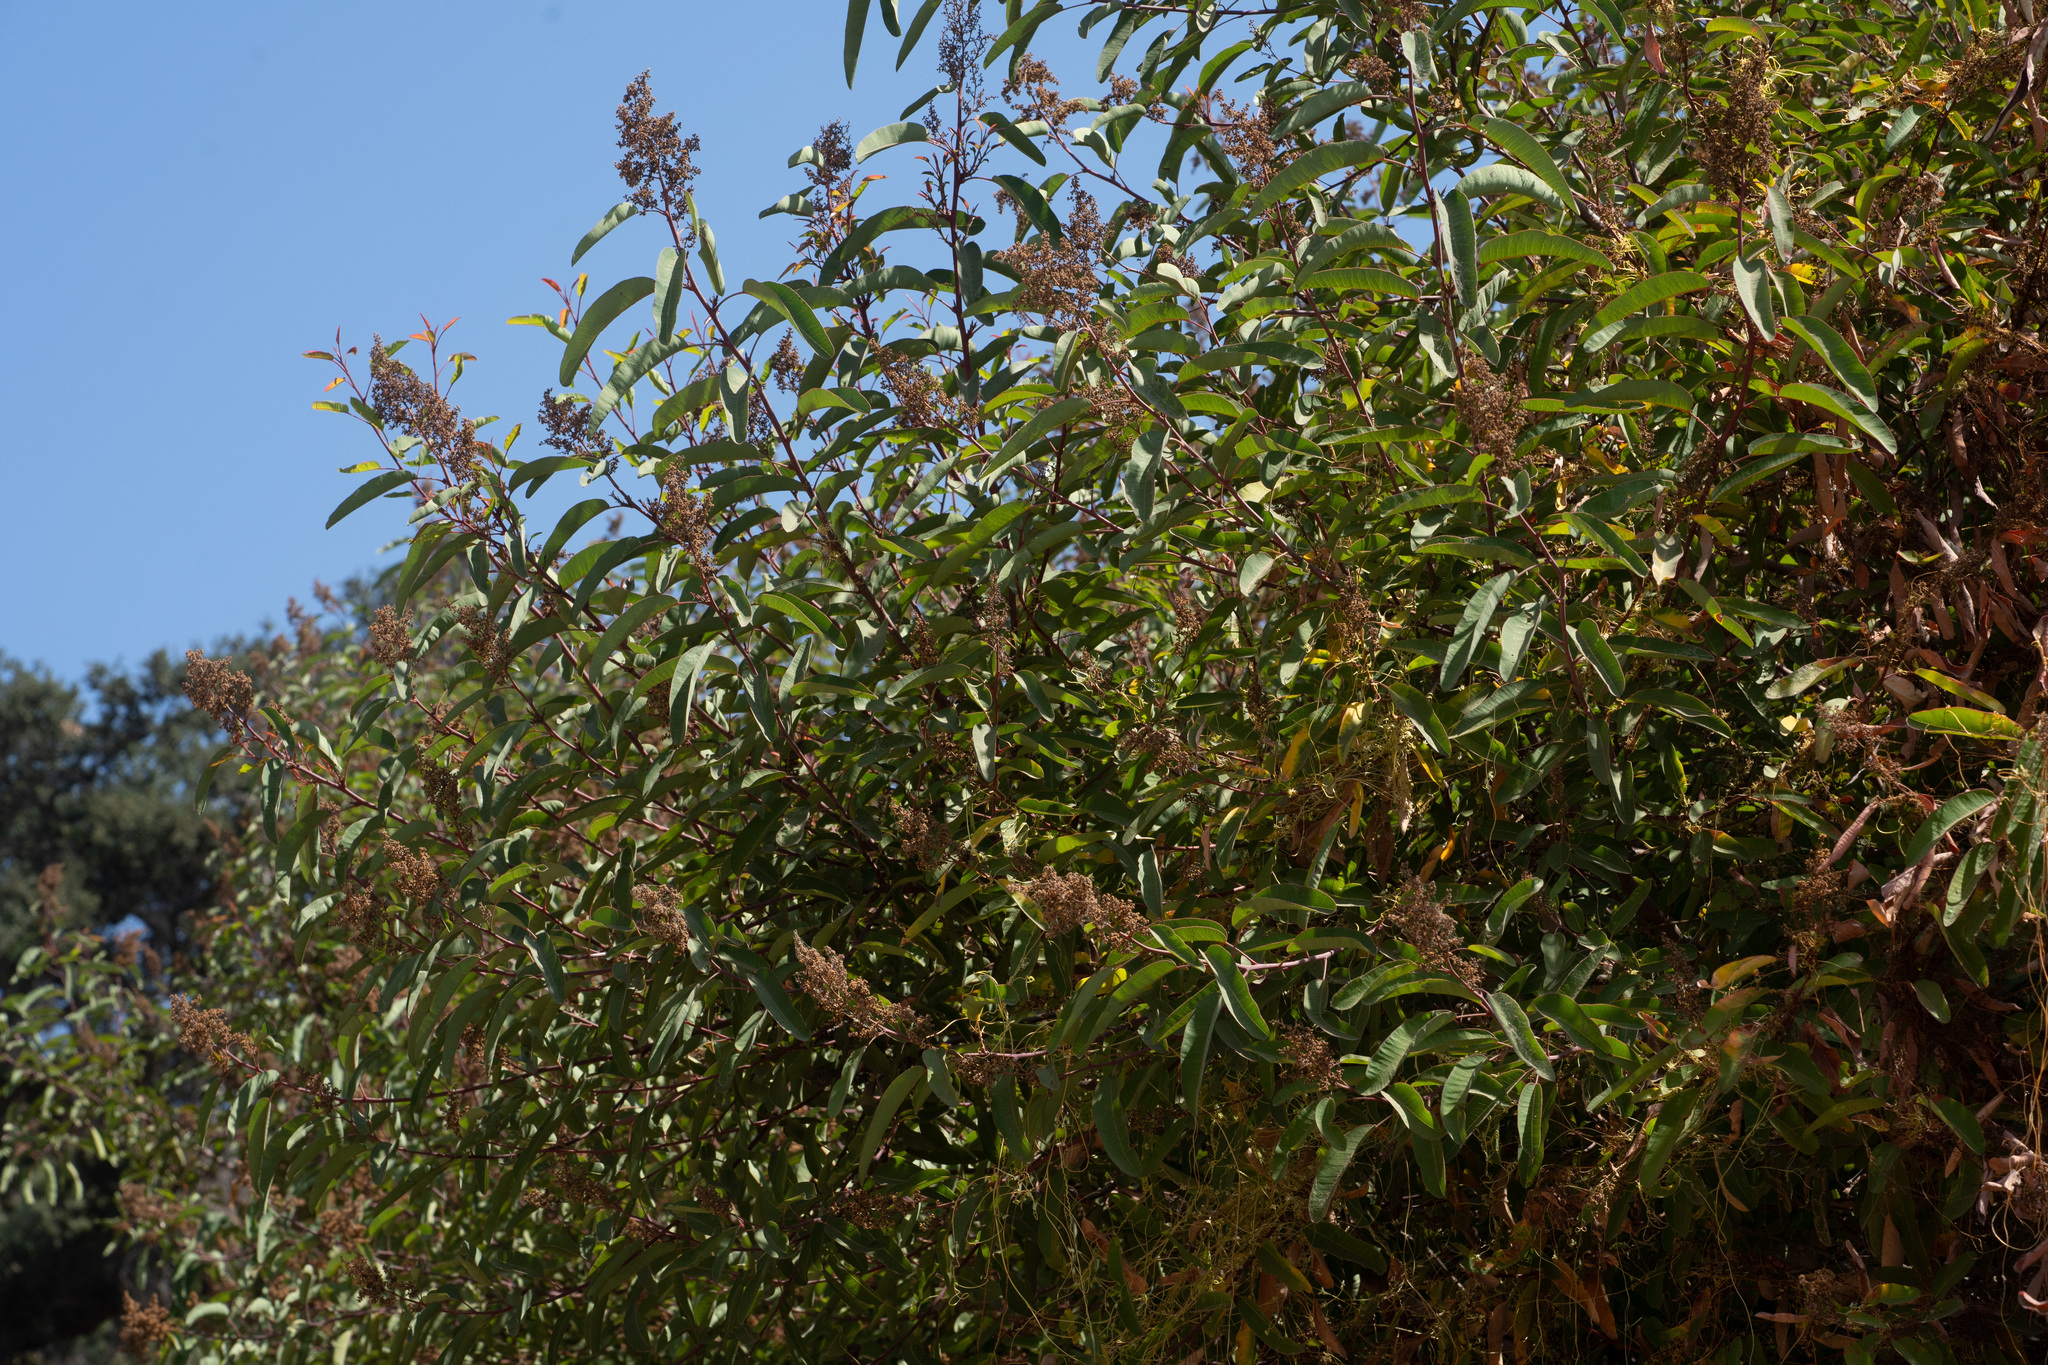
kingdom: Plantae
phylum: Tracheophyta
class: Magnoliopsida
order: Sapindales
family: Anacardiaceae
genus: Malosma
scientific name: Malosma laurina
